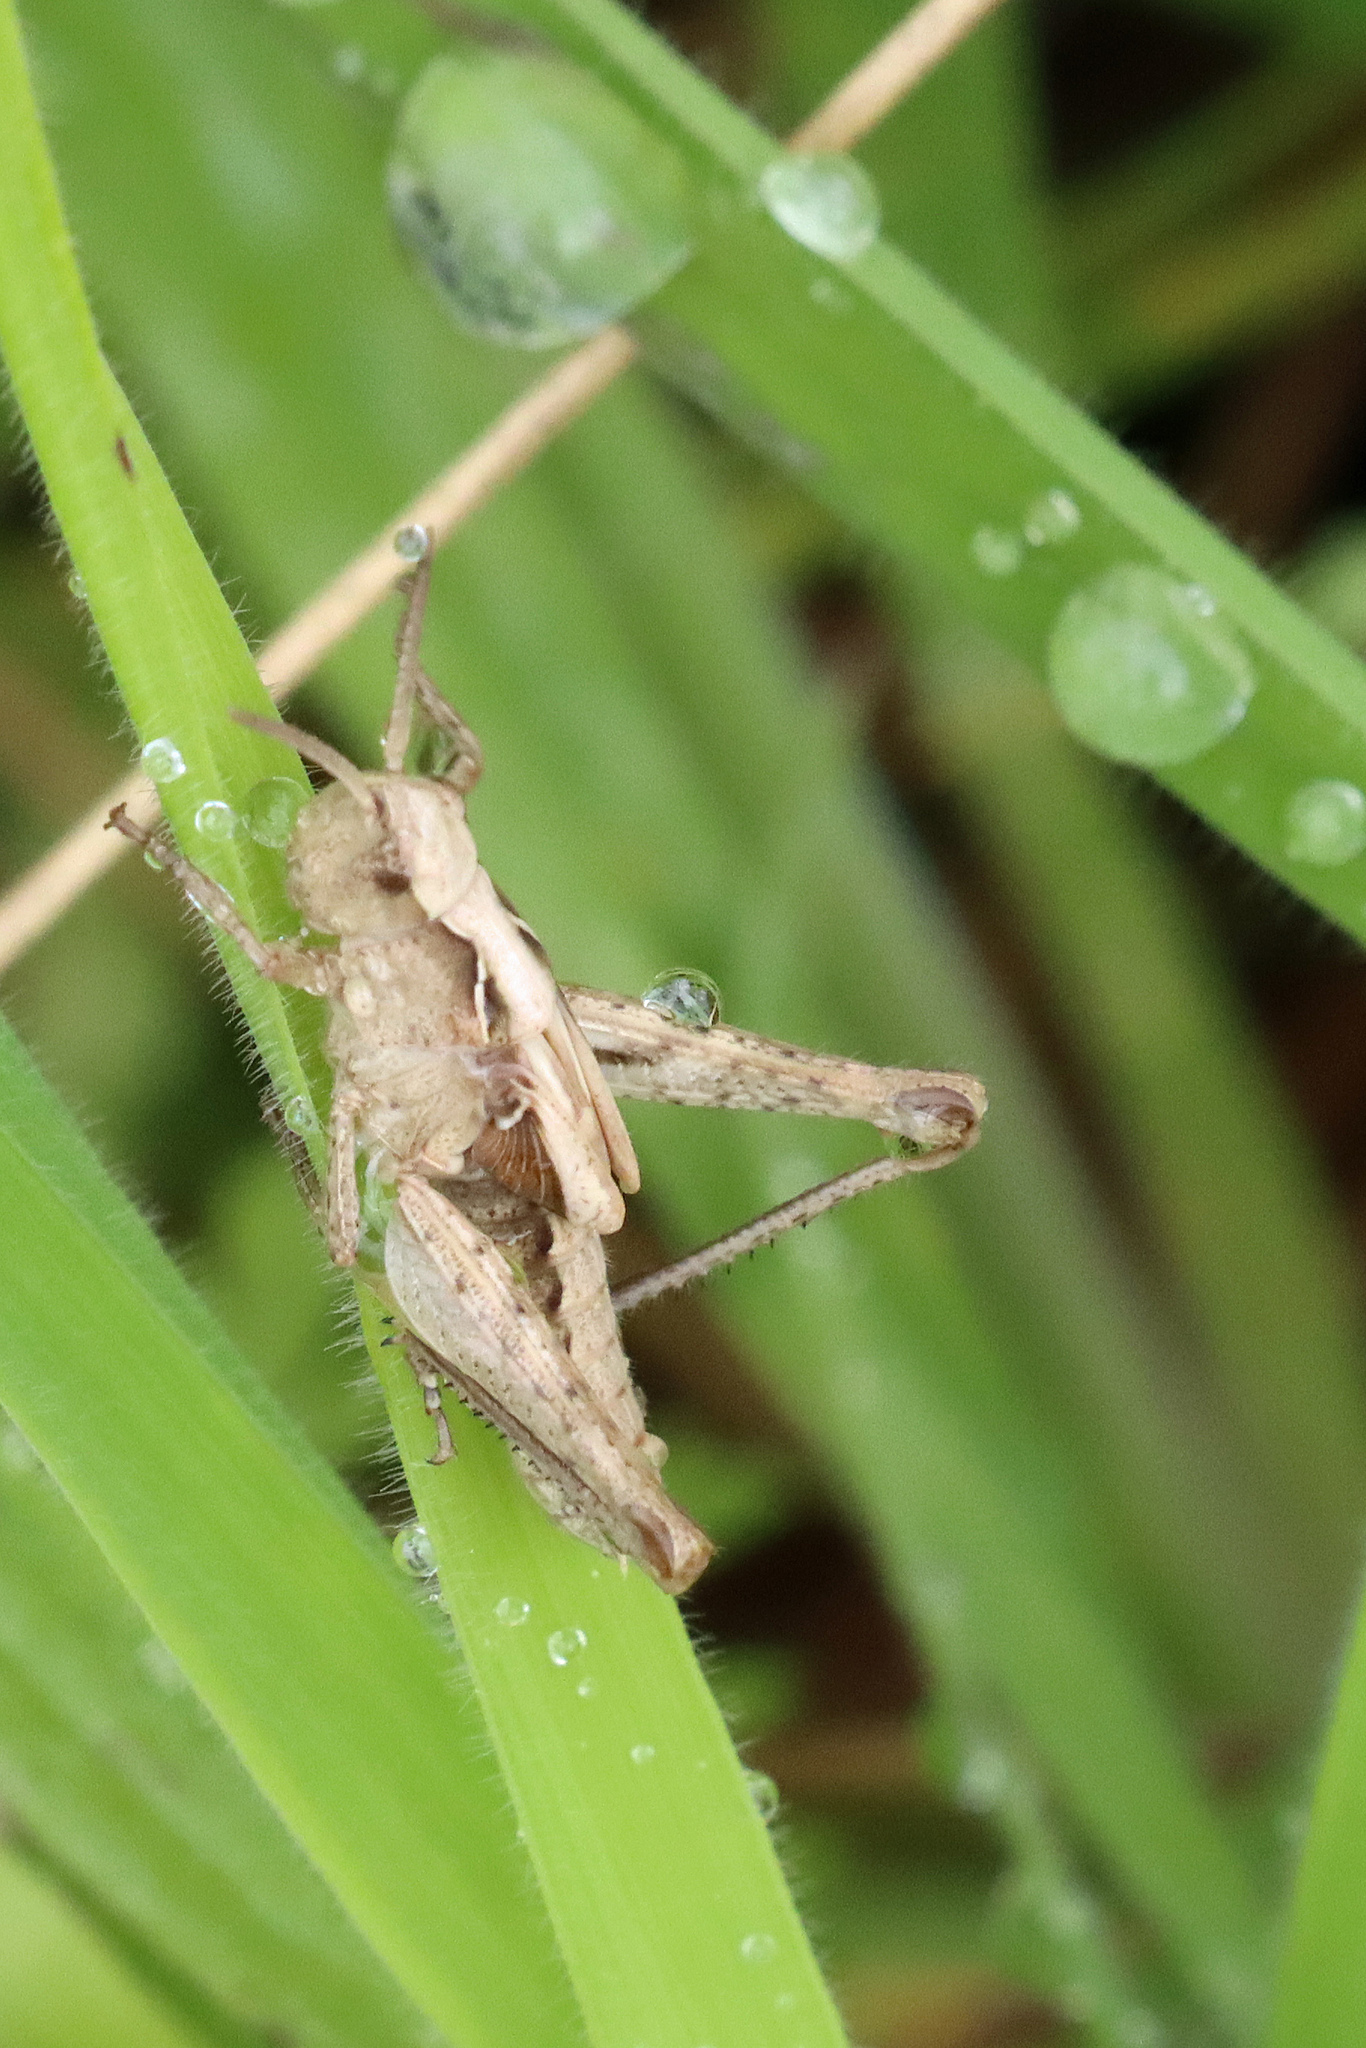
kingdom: Animalia
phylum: Arthropoda
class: Insecta
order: Orthoptera
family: Acrididae
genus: Chorthippus
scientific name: Chorthippus brunneus
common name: Field grasshopper
